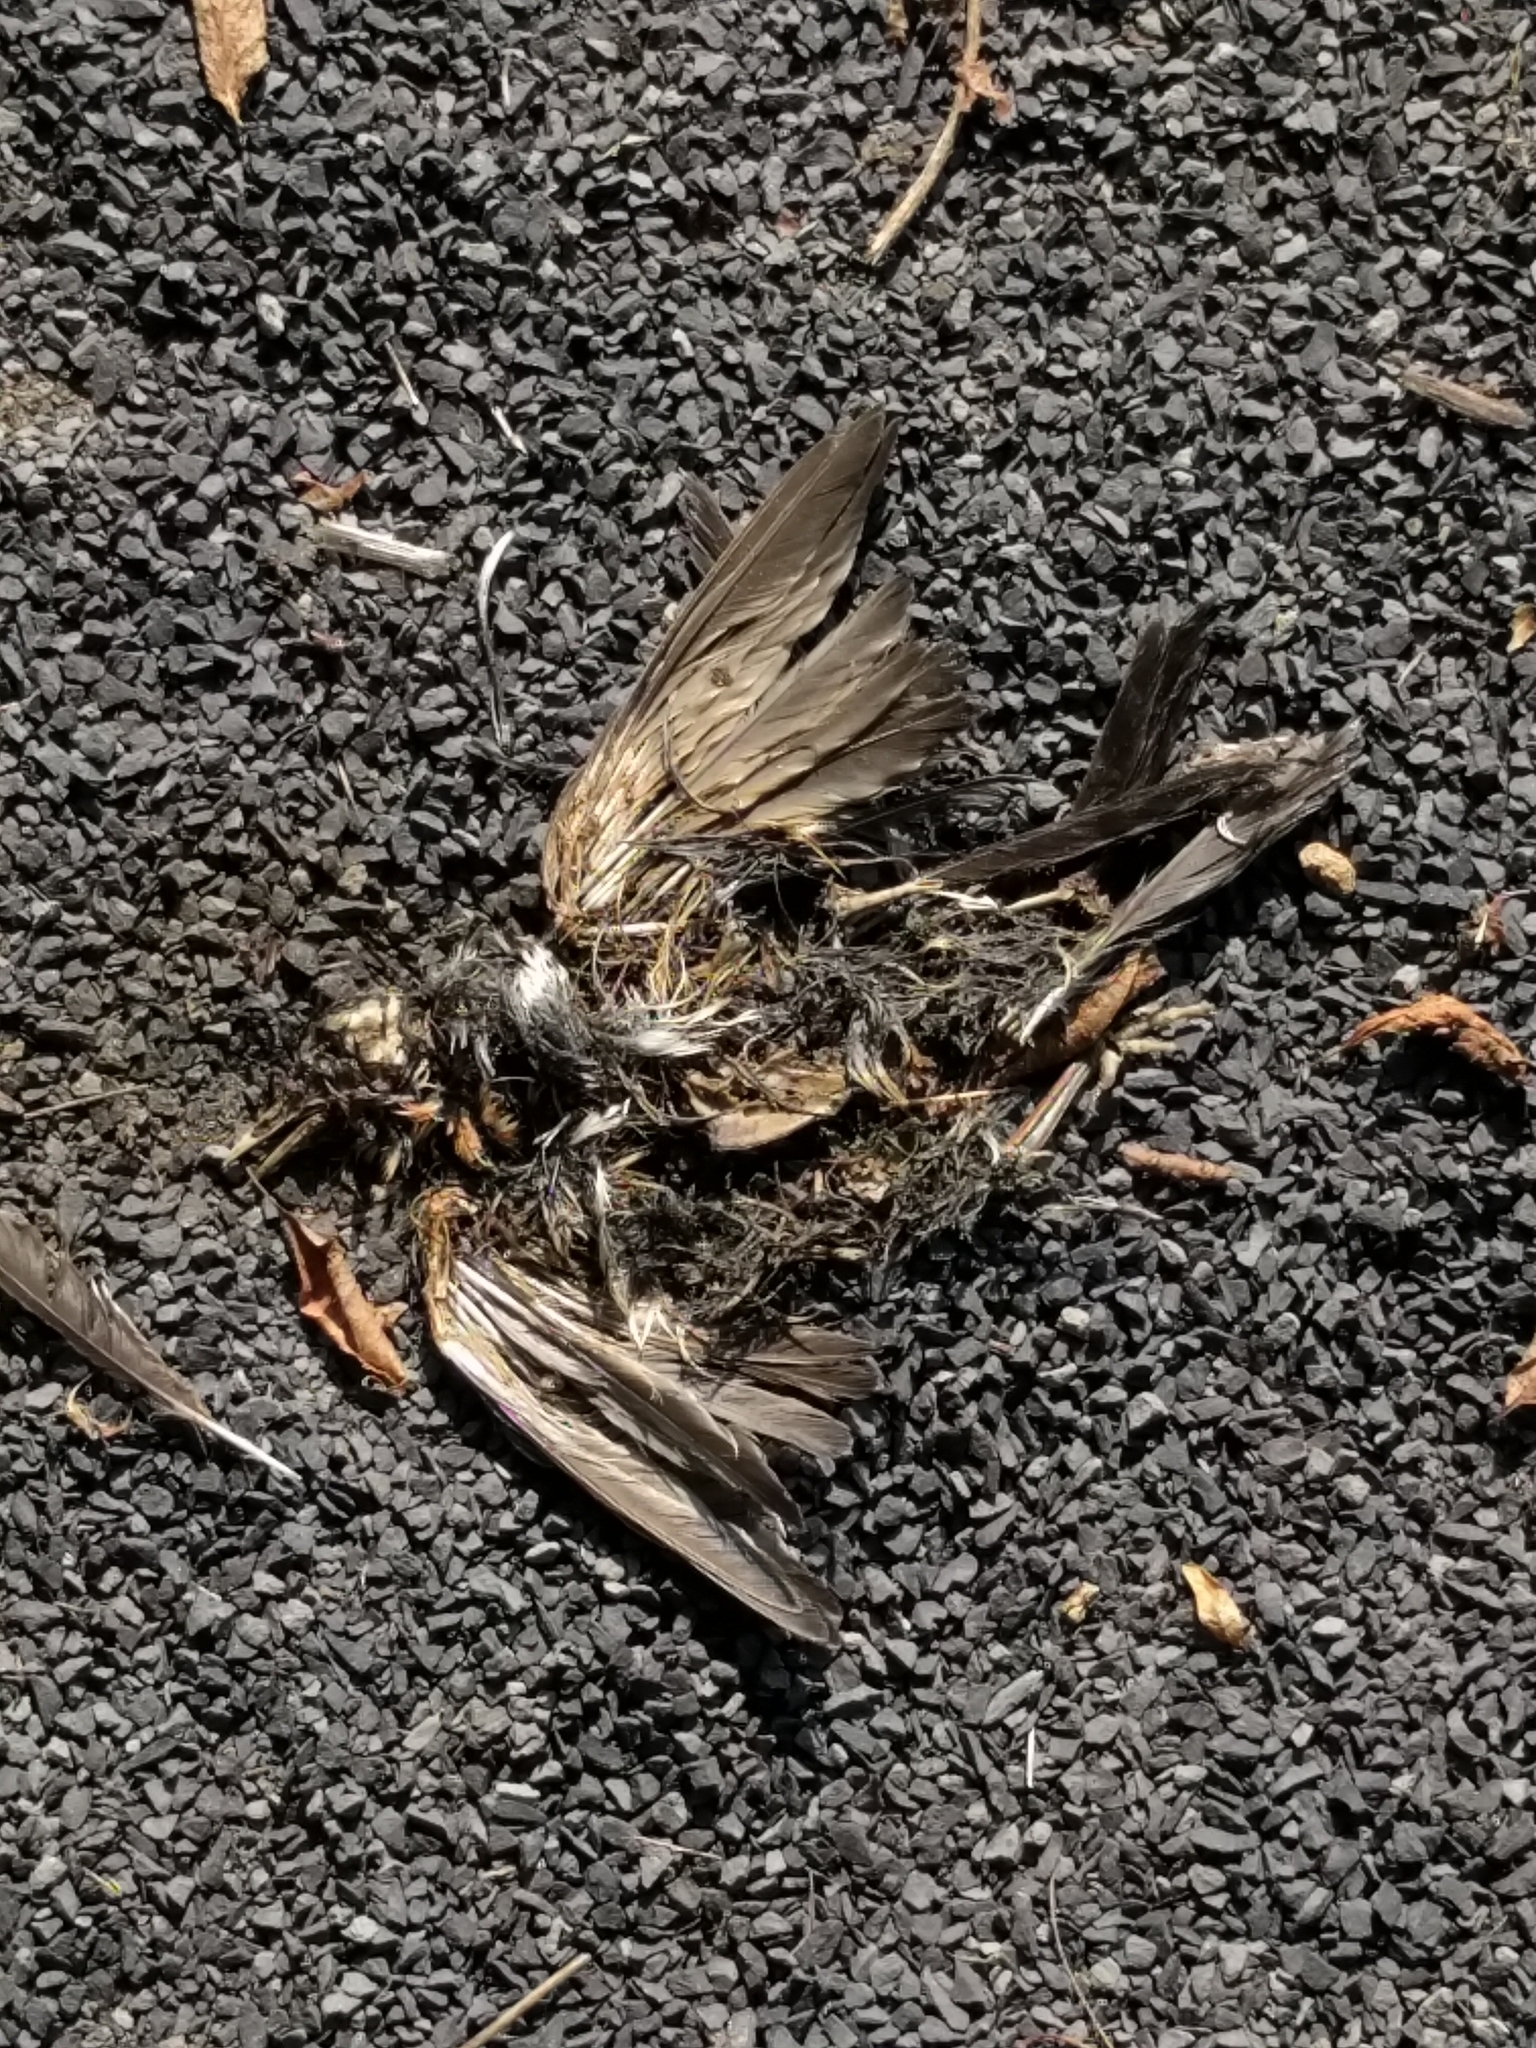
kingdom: Animalia
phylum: Chordata
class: Aves
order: Passeriformes
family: Turdidae
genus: Turdus
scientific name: Turdus migratorius
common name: American robin
